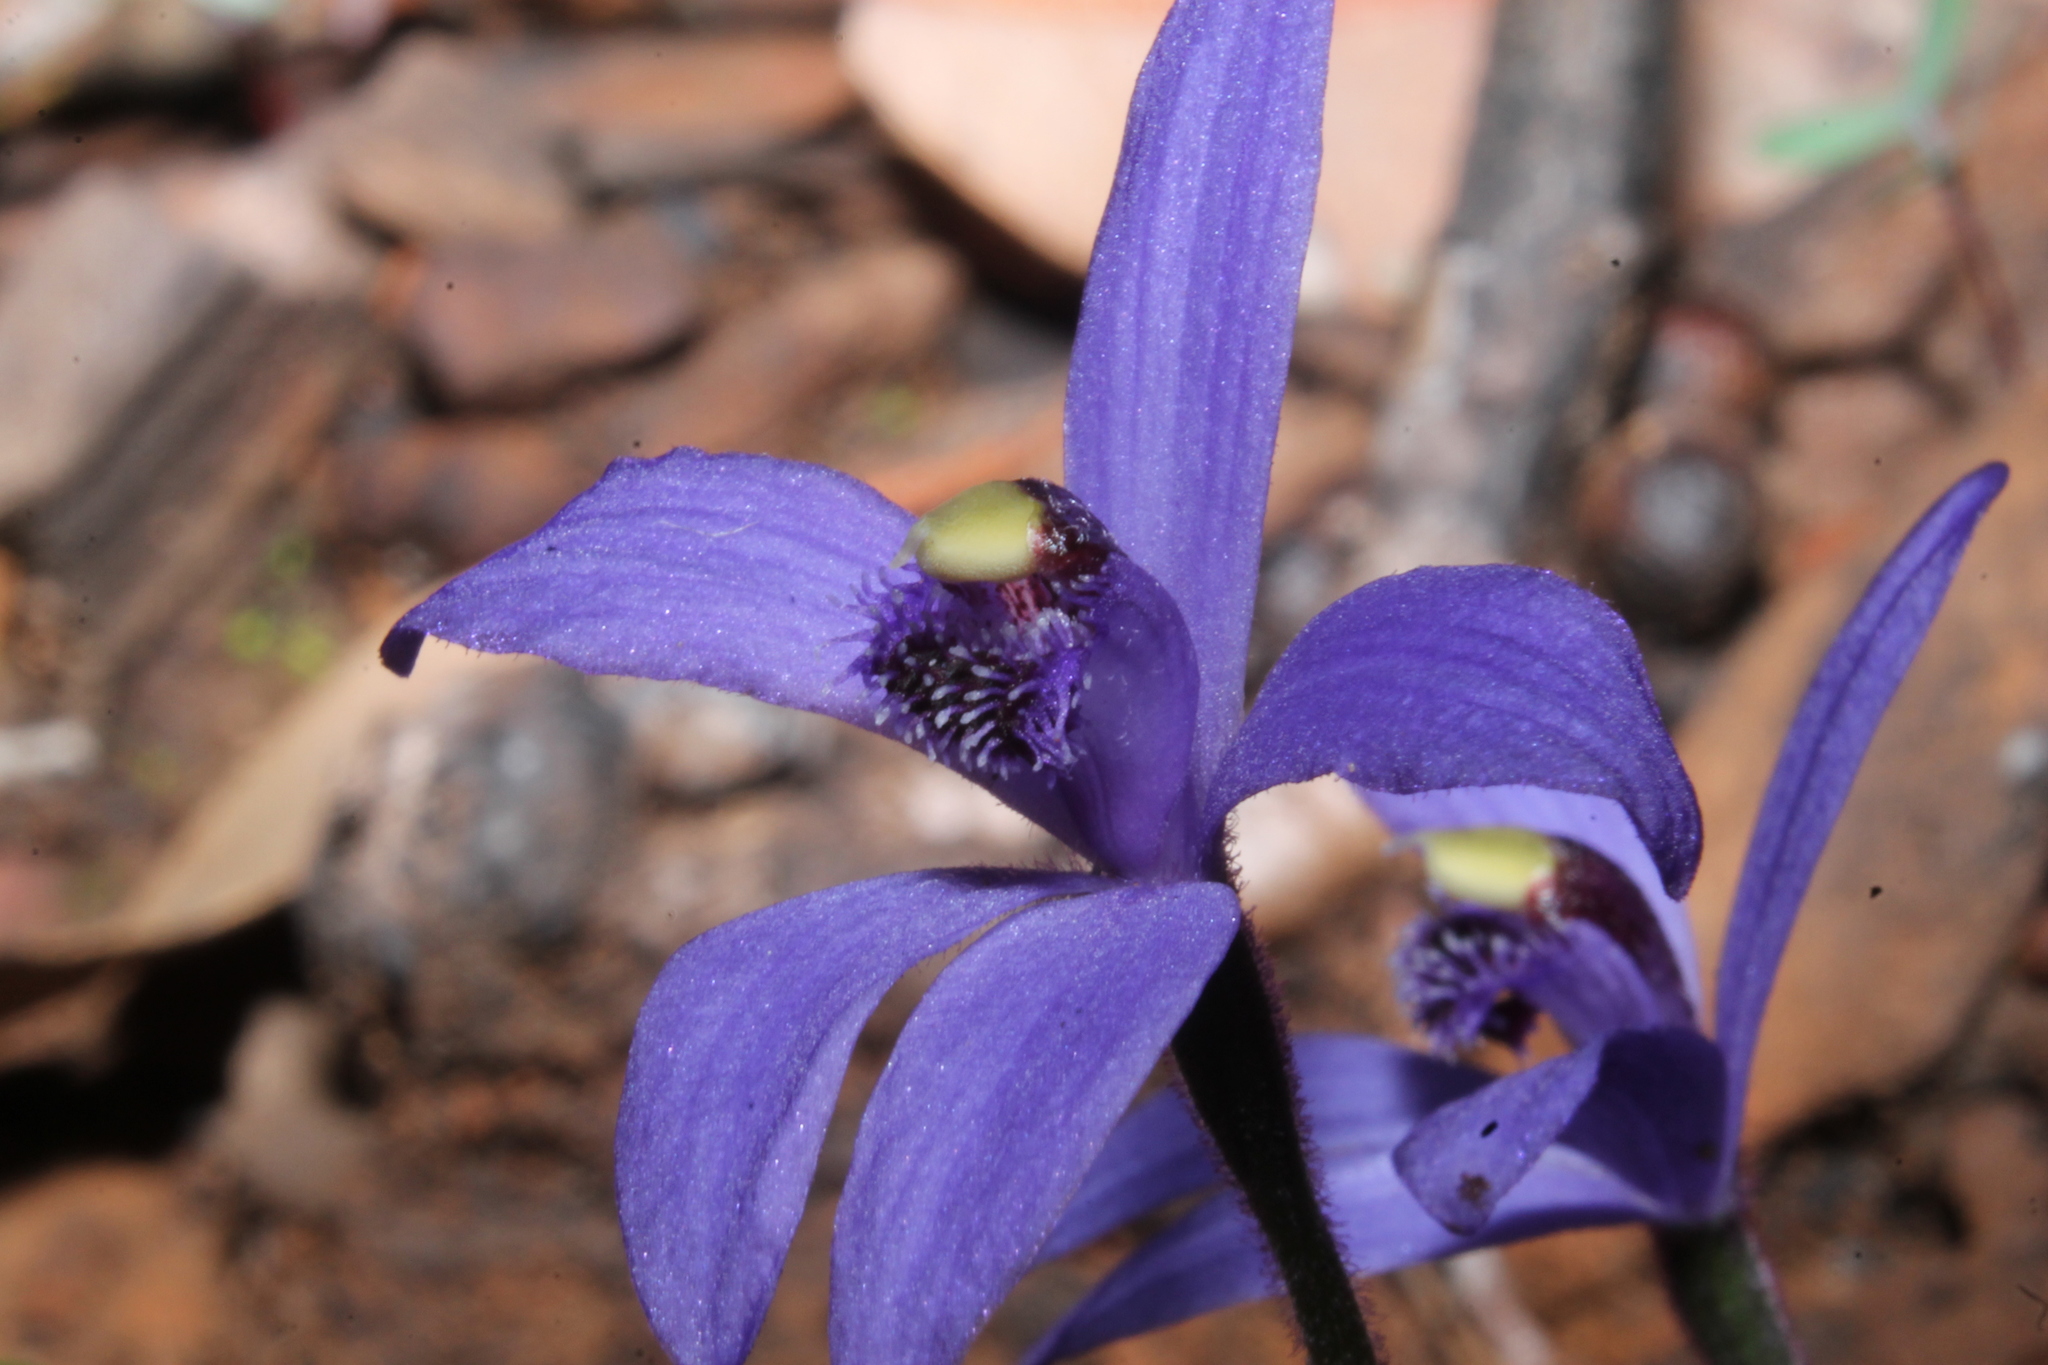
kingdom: Plantae
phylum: Tracheophyta
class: Liliopsida
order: Asparagales
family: Orchidaceae
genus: Pheladenia
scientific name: Pheladenia deformis
